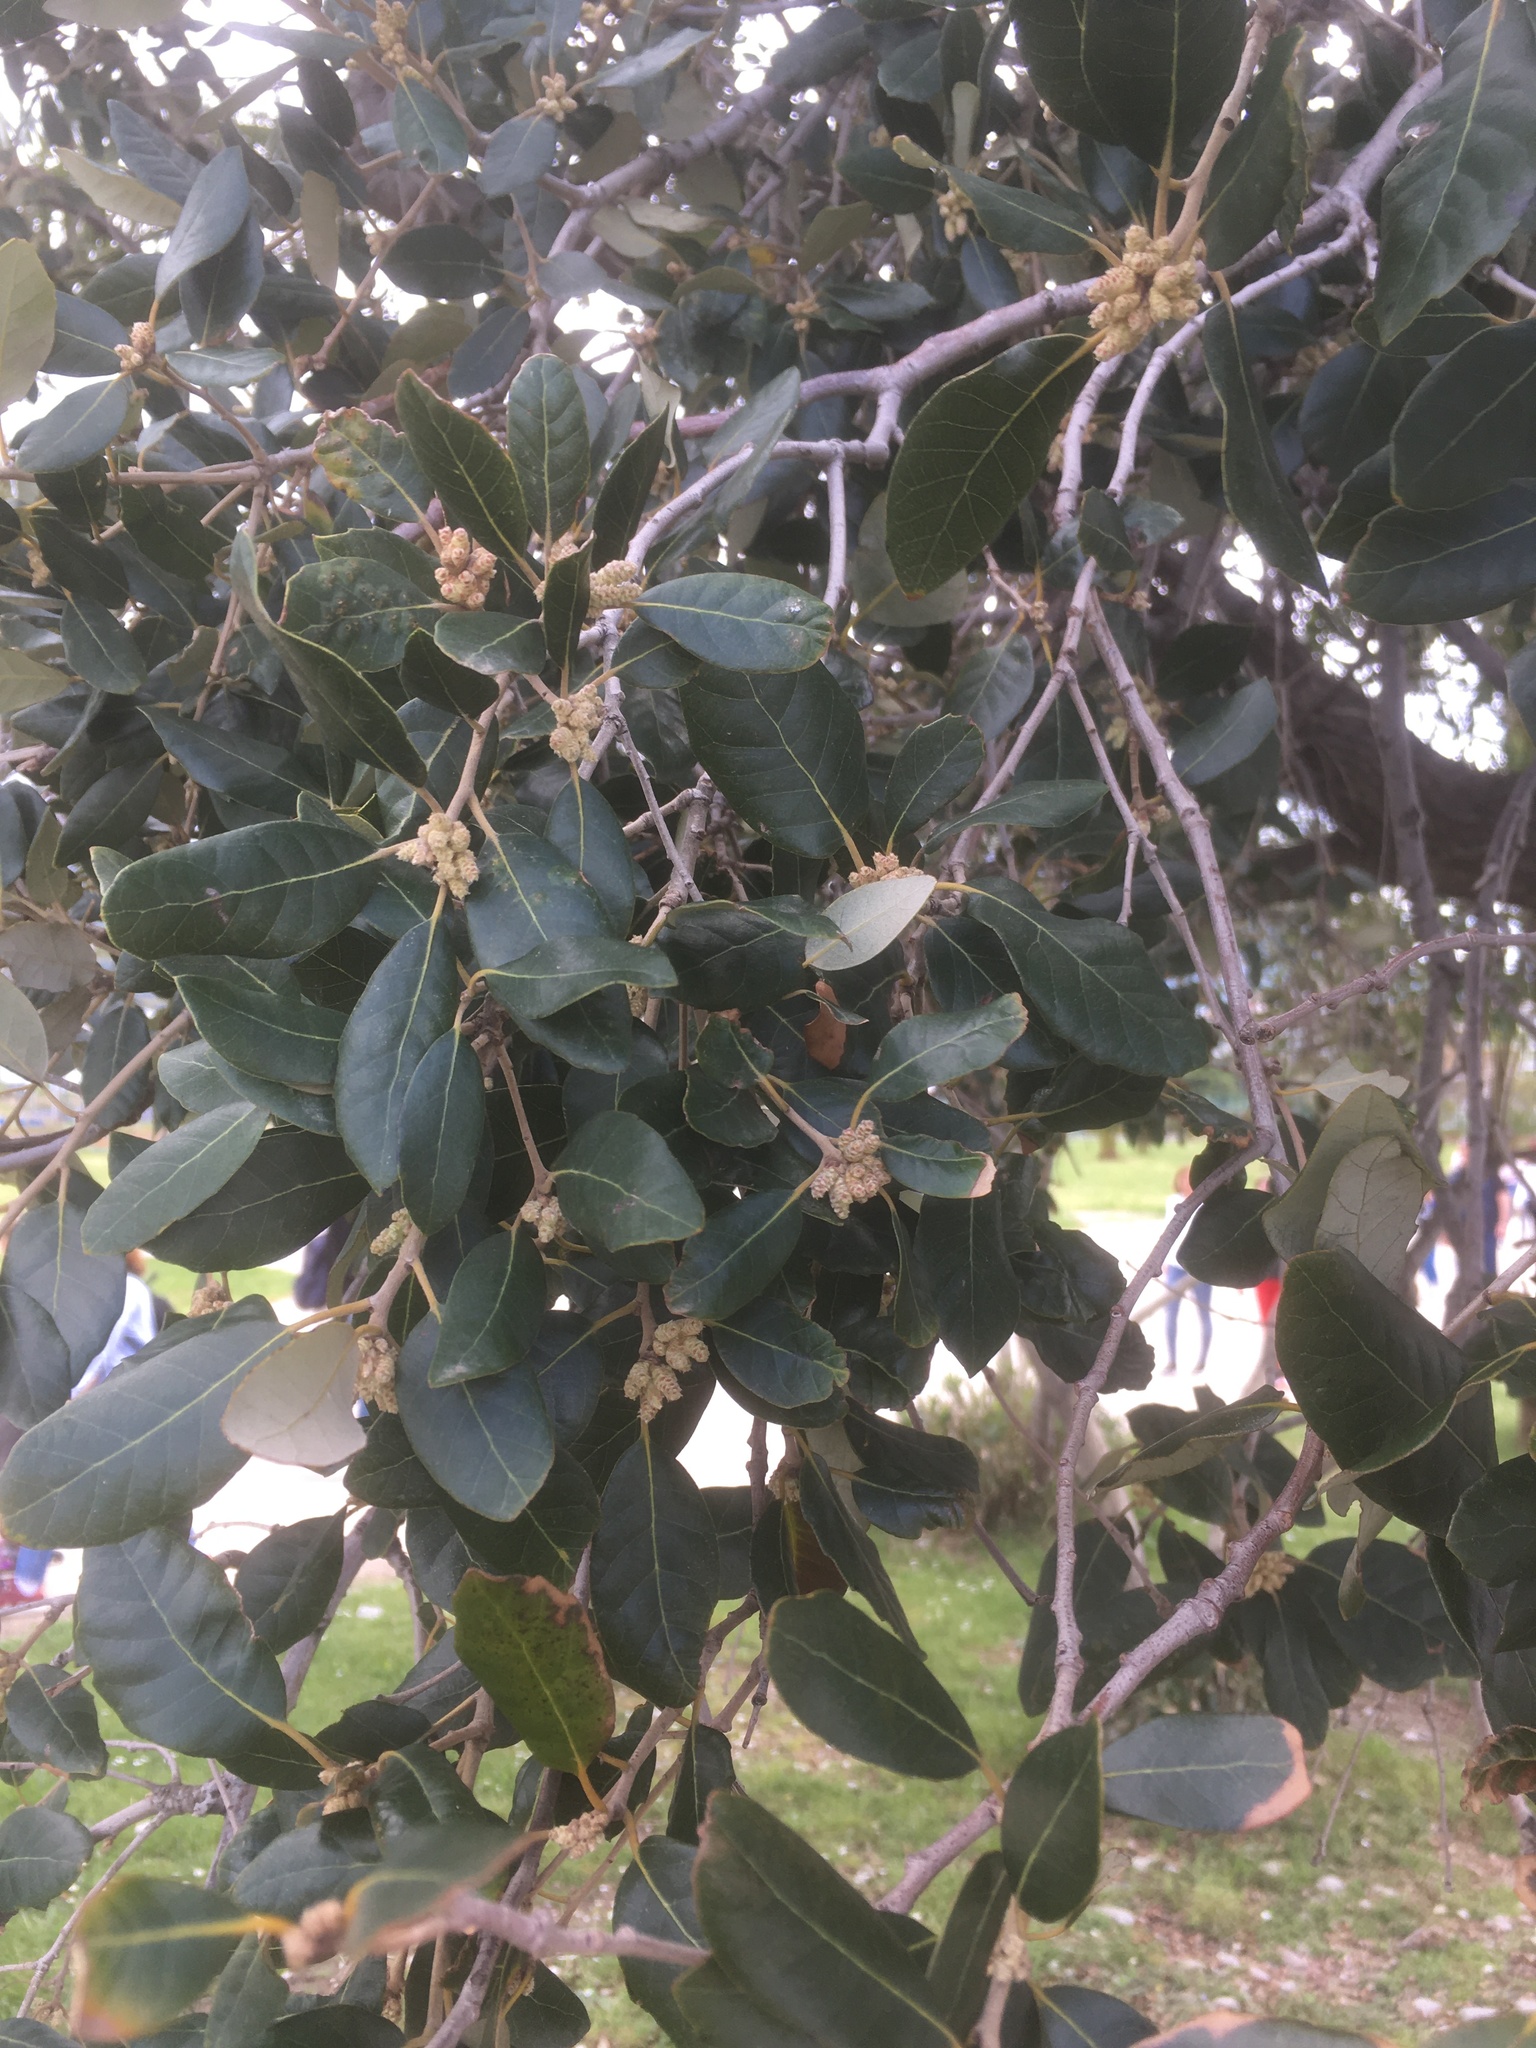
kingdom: Plantae
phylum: Tracheophyta
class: Magnoliopsida
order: Fagales
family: Fagaceae
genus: Quercus
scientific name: Quercus ilex
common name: Evergreen oak
